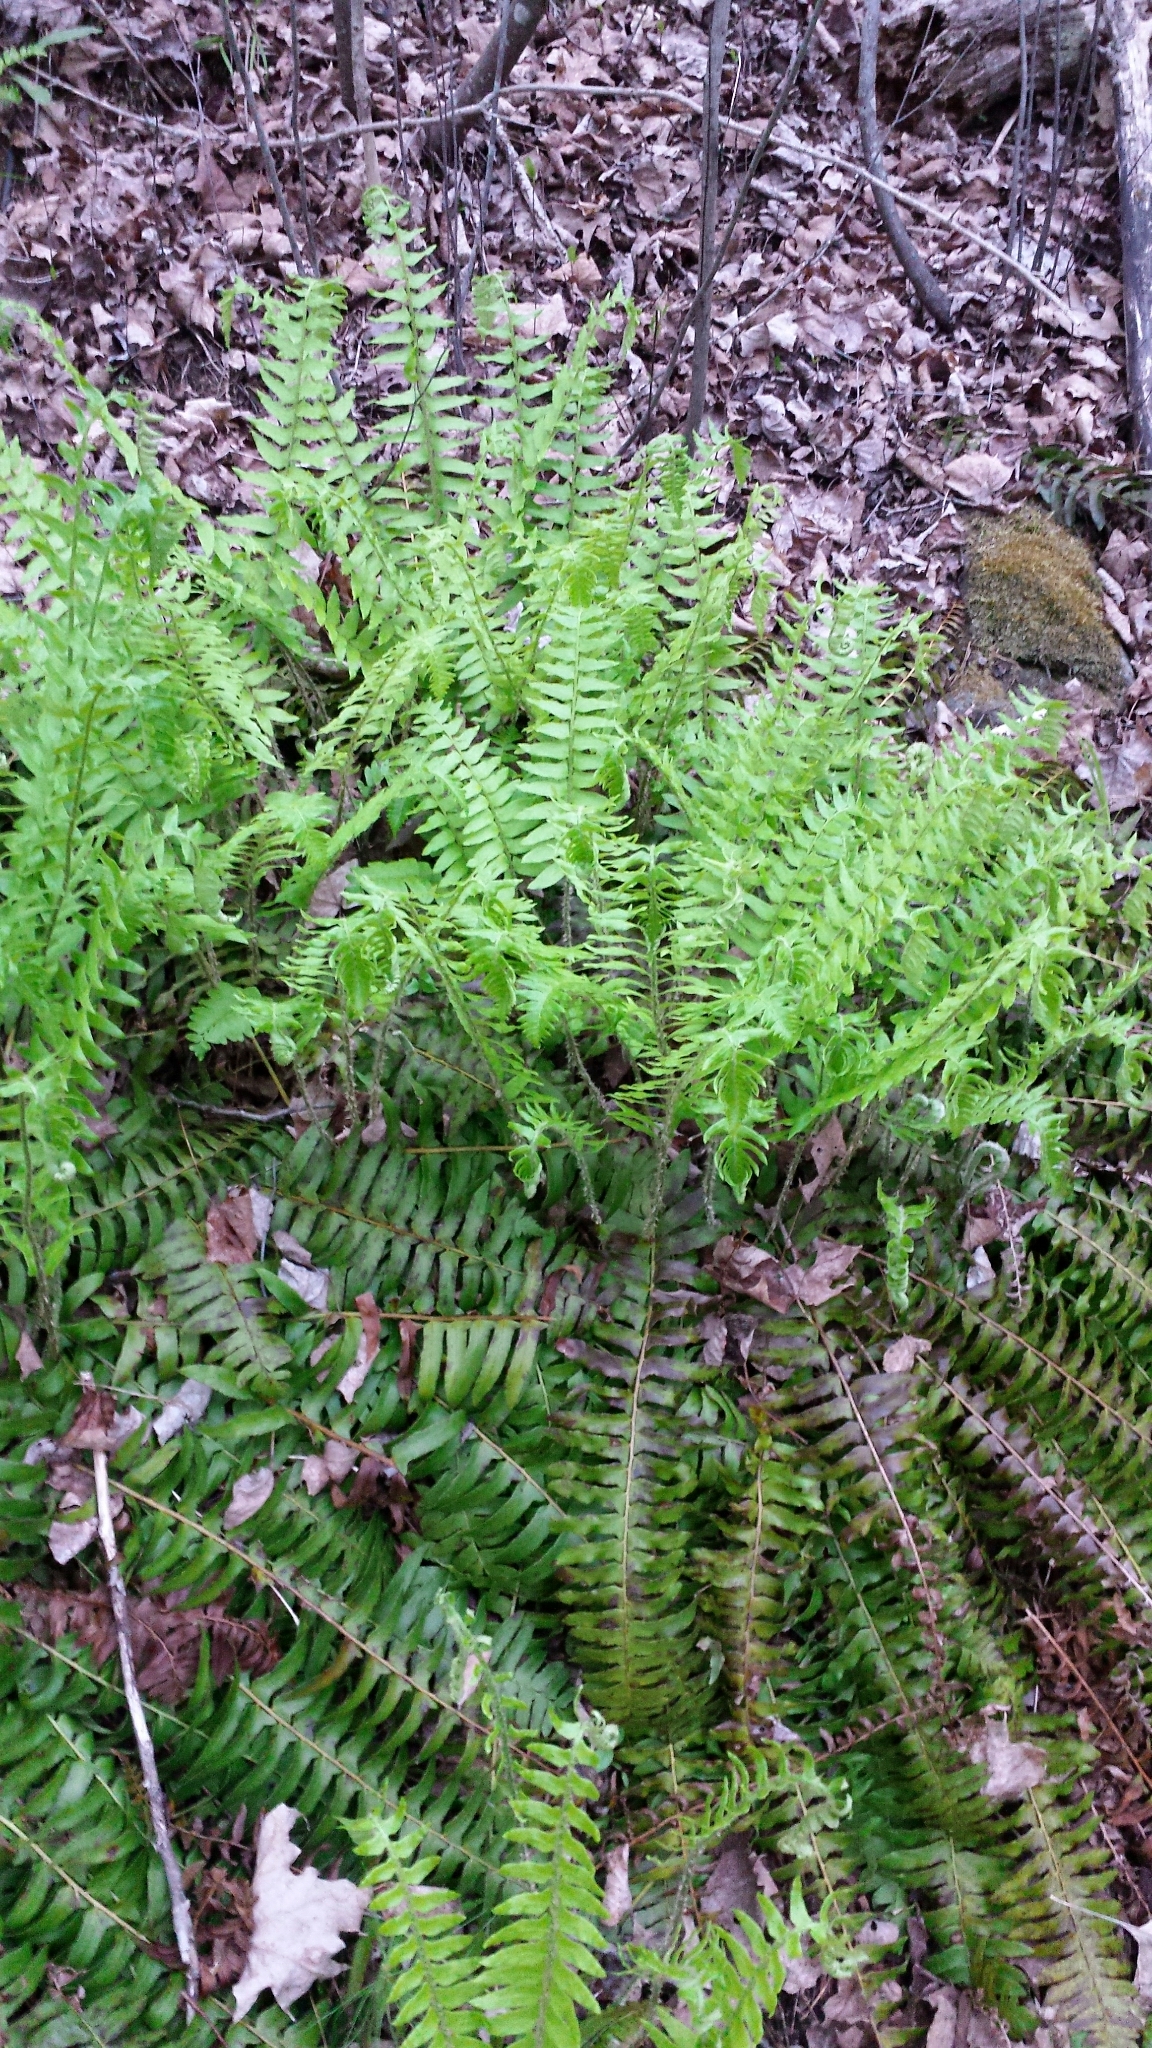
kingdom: Plantae
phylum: Tracheophyta
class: Polypodiopsida
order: Polypodiales
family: Dryopteridaceae
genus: Polystichum
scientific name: Polystichum acrostichoides
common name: Christmas fern
